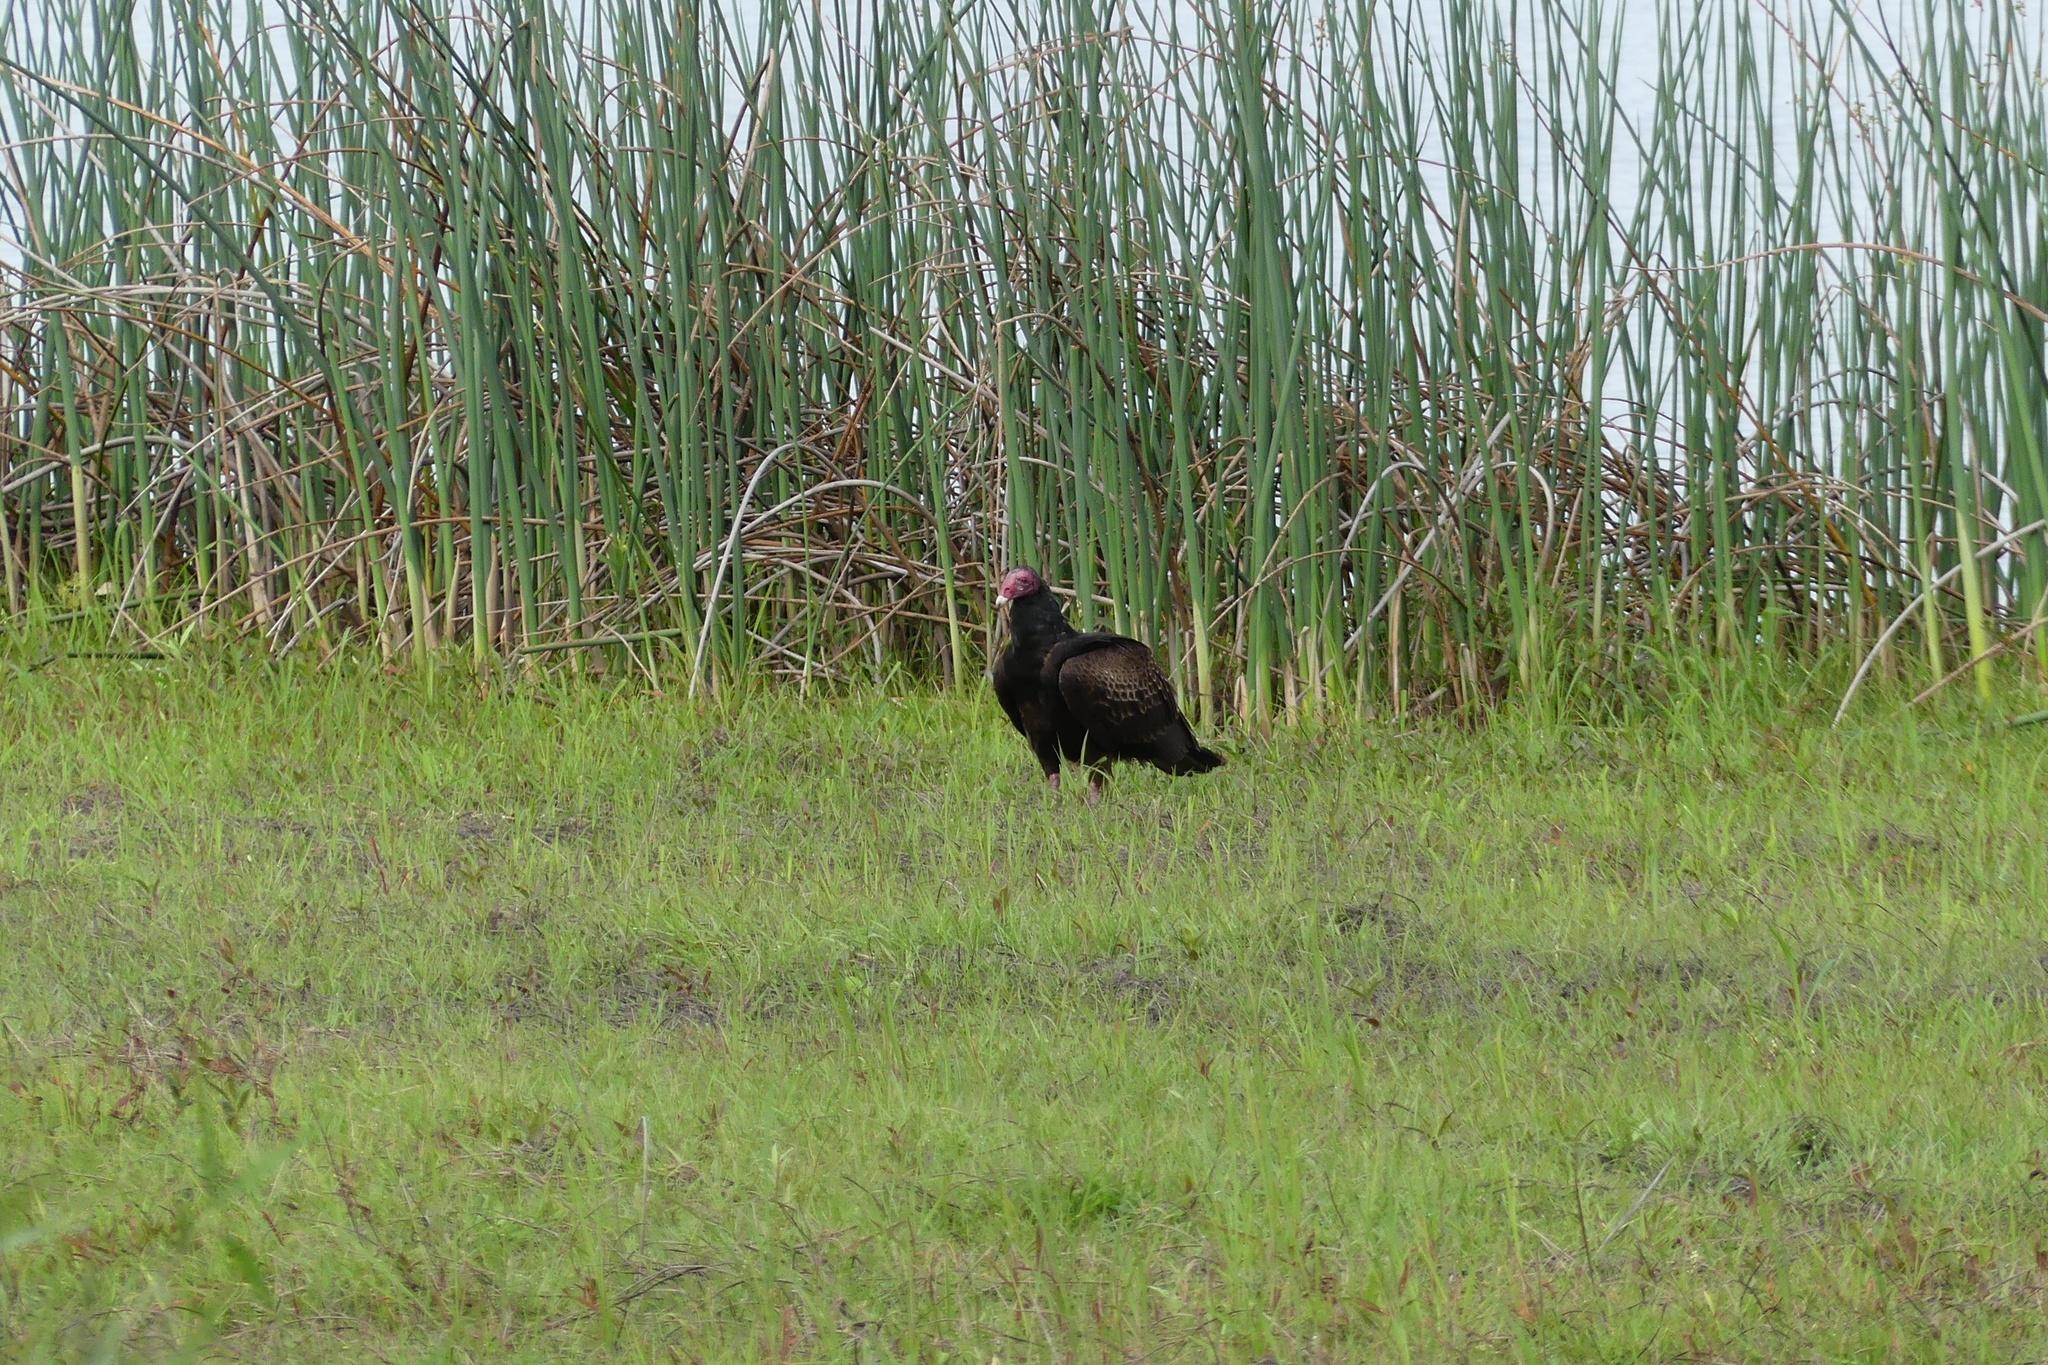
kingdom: Animalia
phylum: Chordata
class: Aves
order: Accipitriformes
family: Cathartidae
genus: Cathartes
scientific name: Cathartes aura
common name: Turkey vulture
